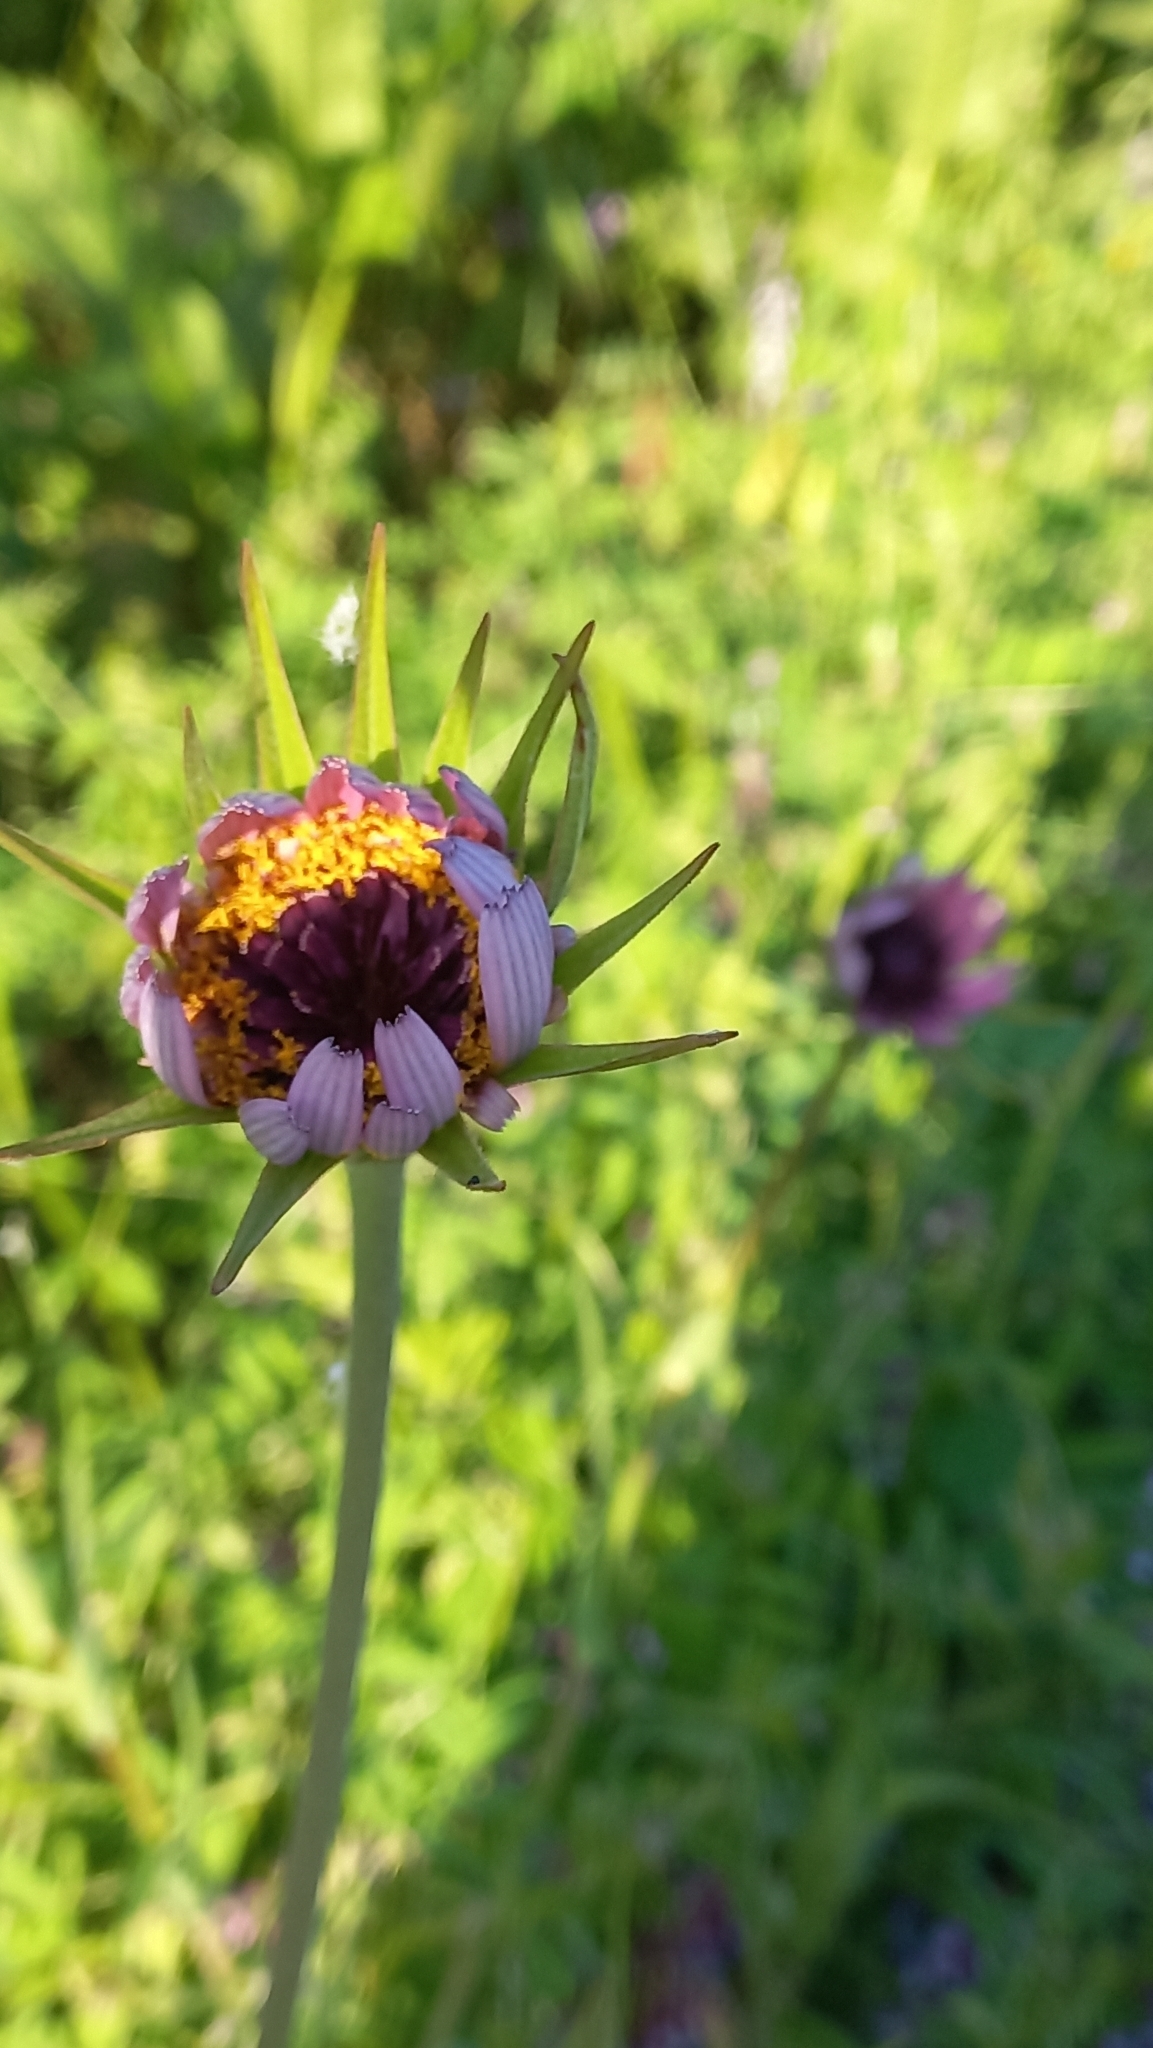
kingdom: Plantae
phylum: Tracheophyta
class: Magnoliopsida
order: Asterales
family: Asteraceae
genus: Tragopogon
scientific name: Tragopogon porrifolius
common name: Salsify
